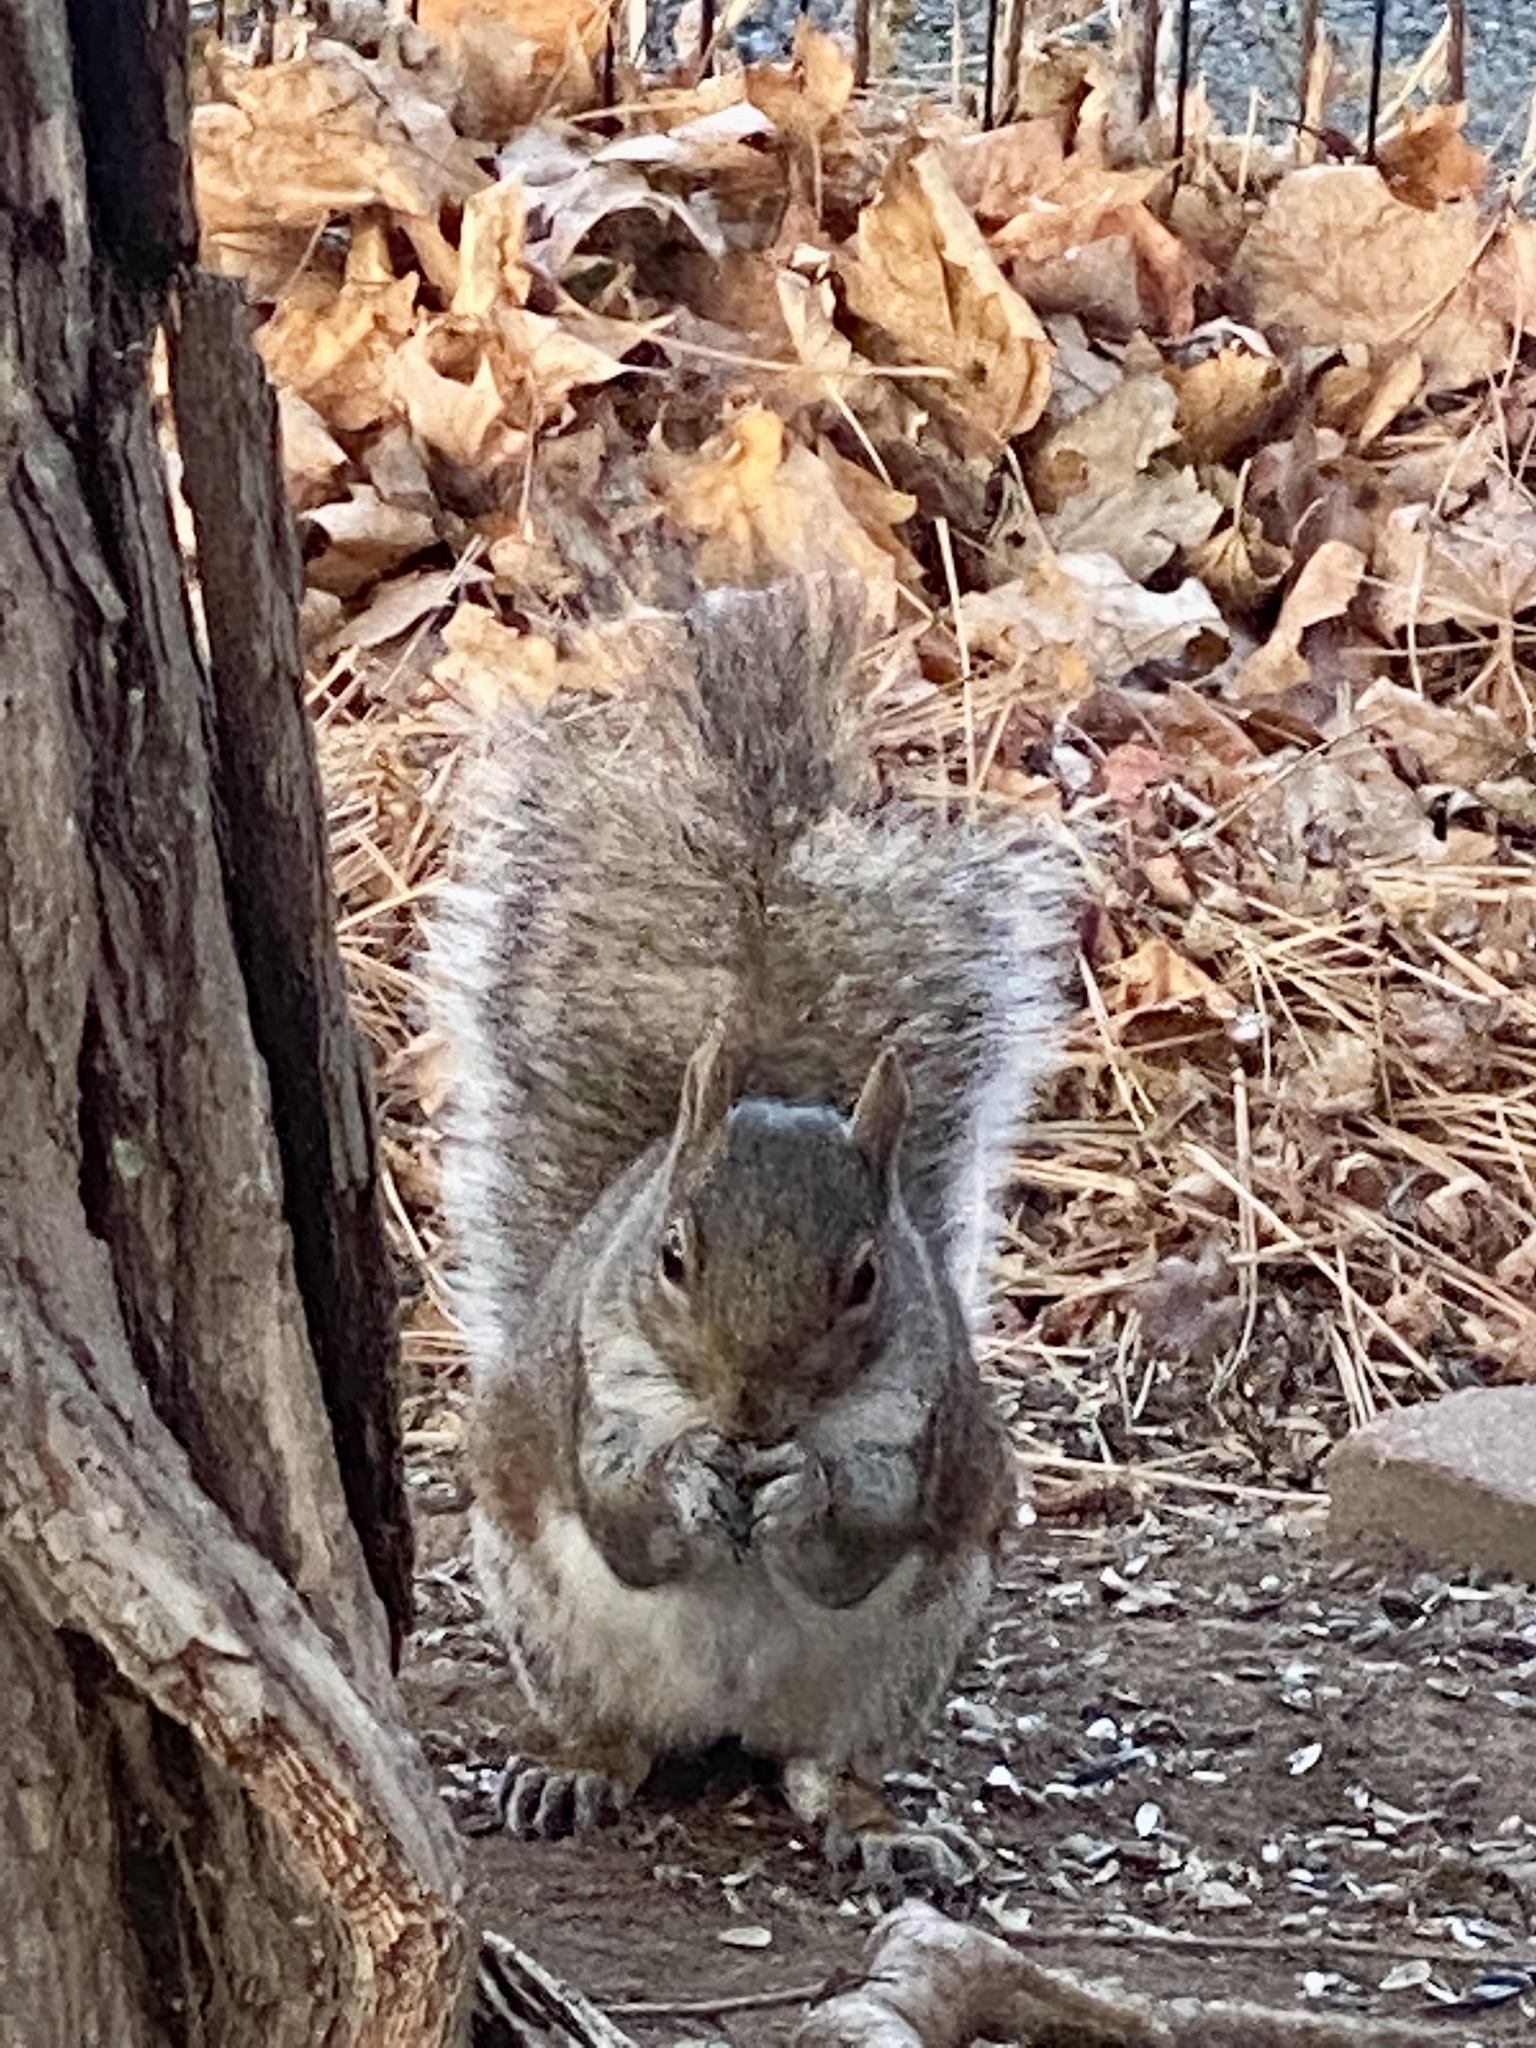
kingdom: Animalia
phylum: Chordata
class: Mammalia
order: Rodentia
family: Sciuridae
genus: Sciurus
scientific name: Sciurus carolinensis
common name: Eastern gray squirrel
